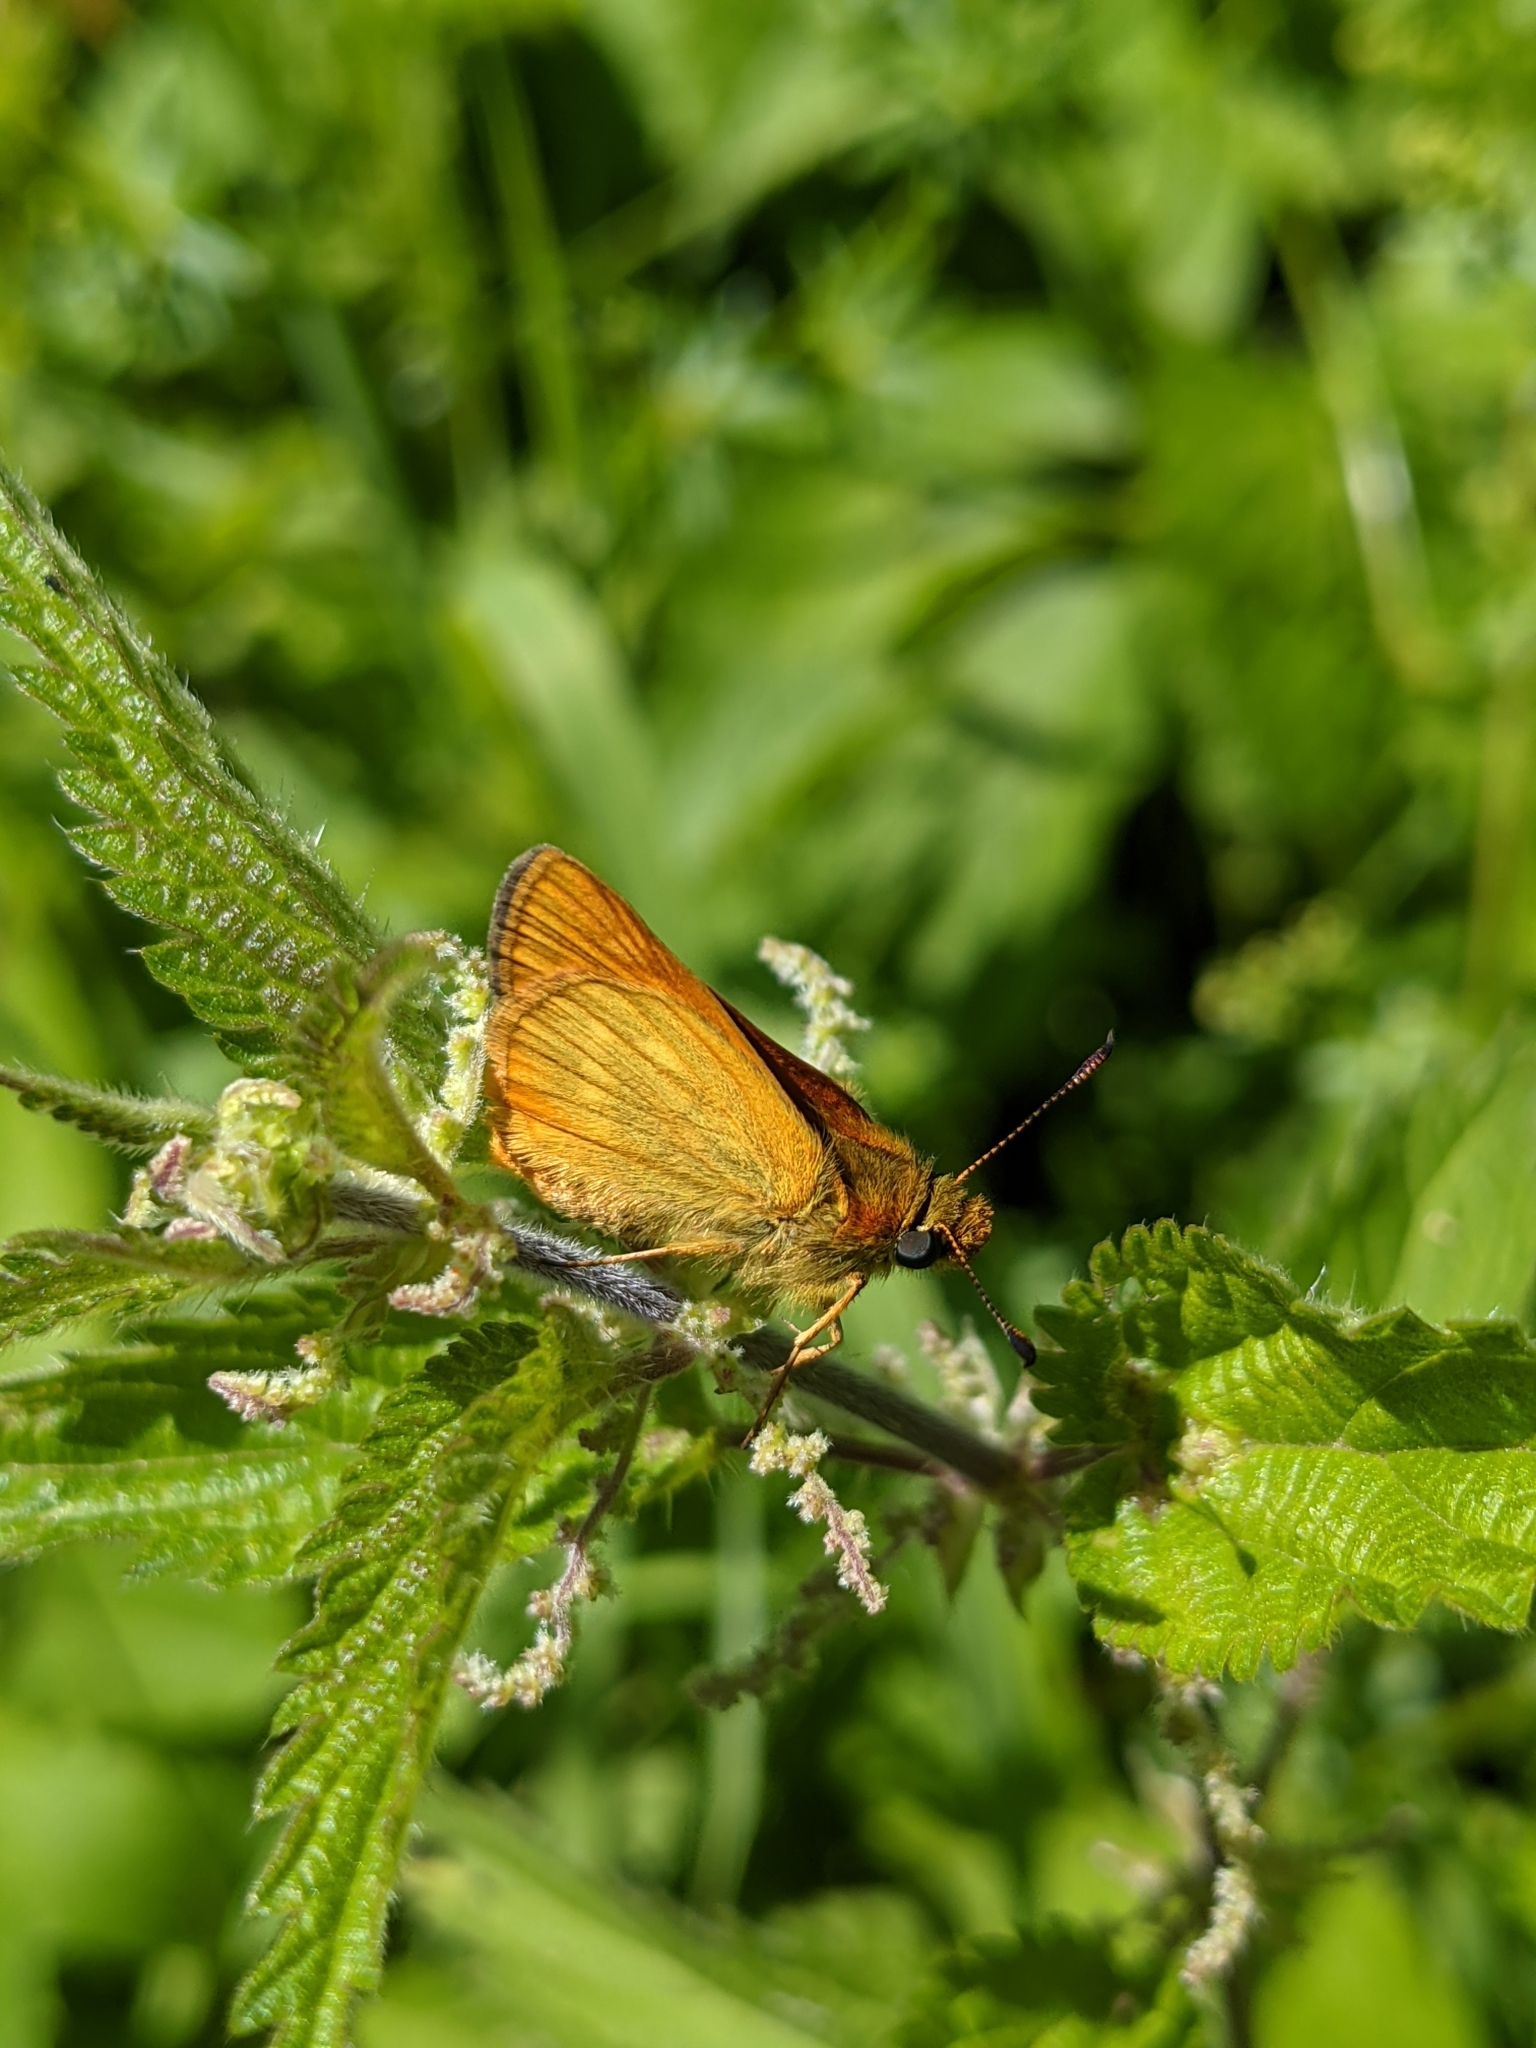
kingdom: Animalia
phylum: Arthropoda
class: Insecta
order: Lepidoptera
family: Hesperiidae
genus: Ochlodes
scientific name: Ochlodes venata
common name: Large skipper
